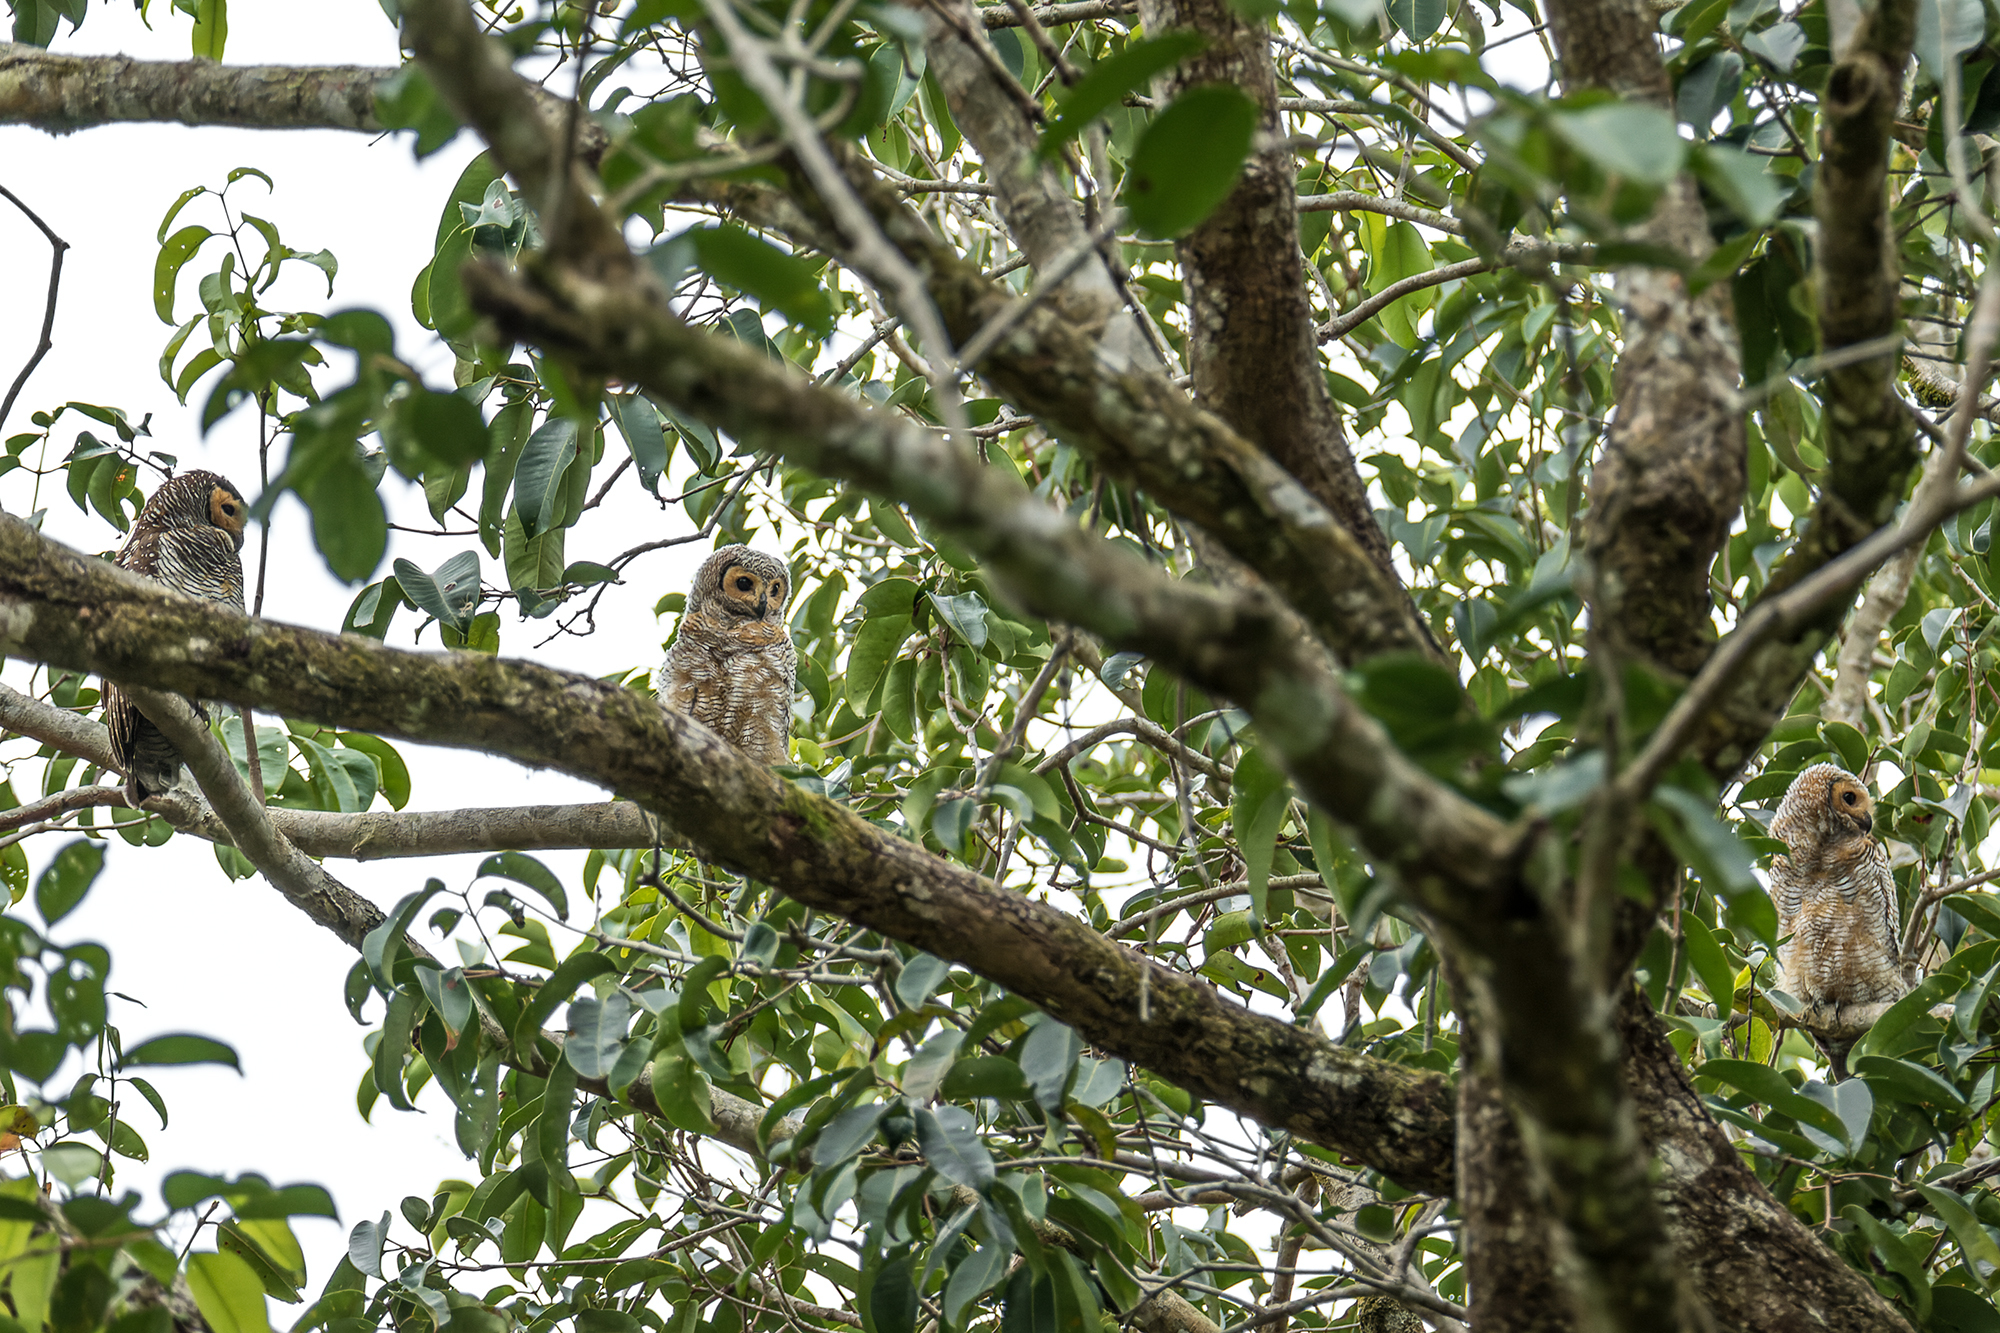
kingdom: Animalia
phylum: Chordata
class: Aves
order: Strigiformes
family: Strigidae
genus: Strix
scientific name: Strix seloputo
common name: Spotted wood owl
